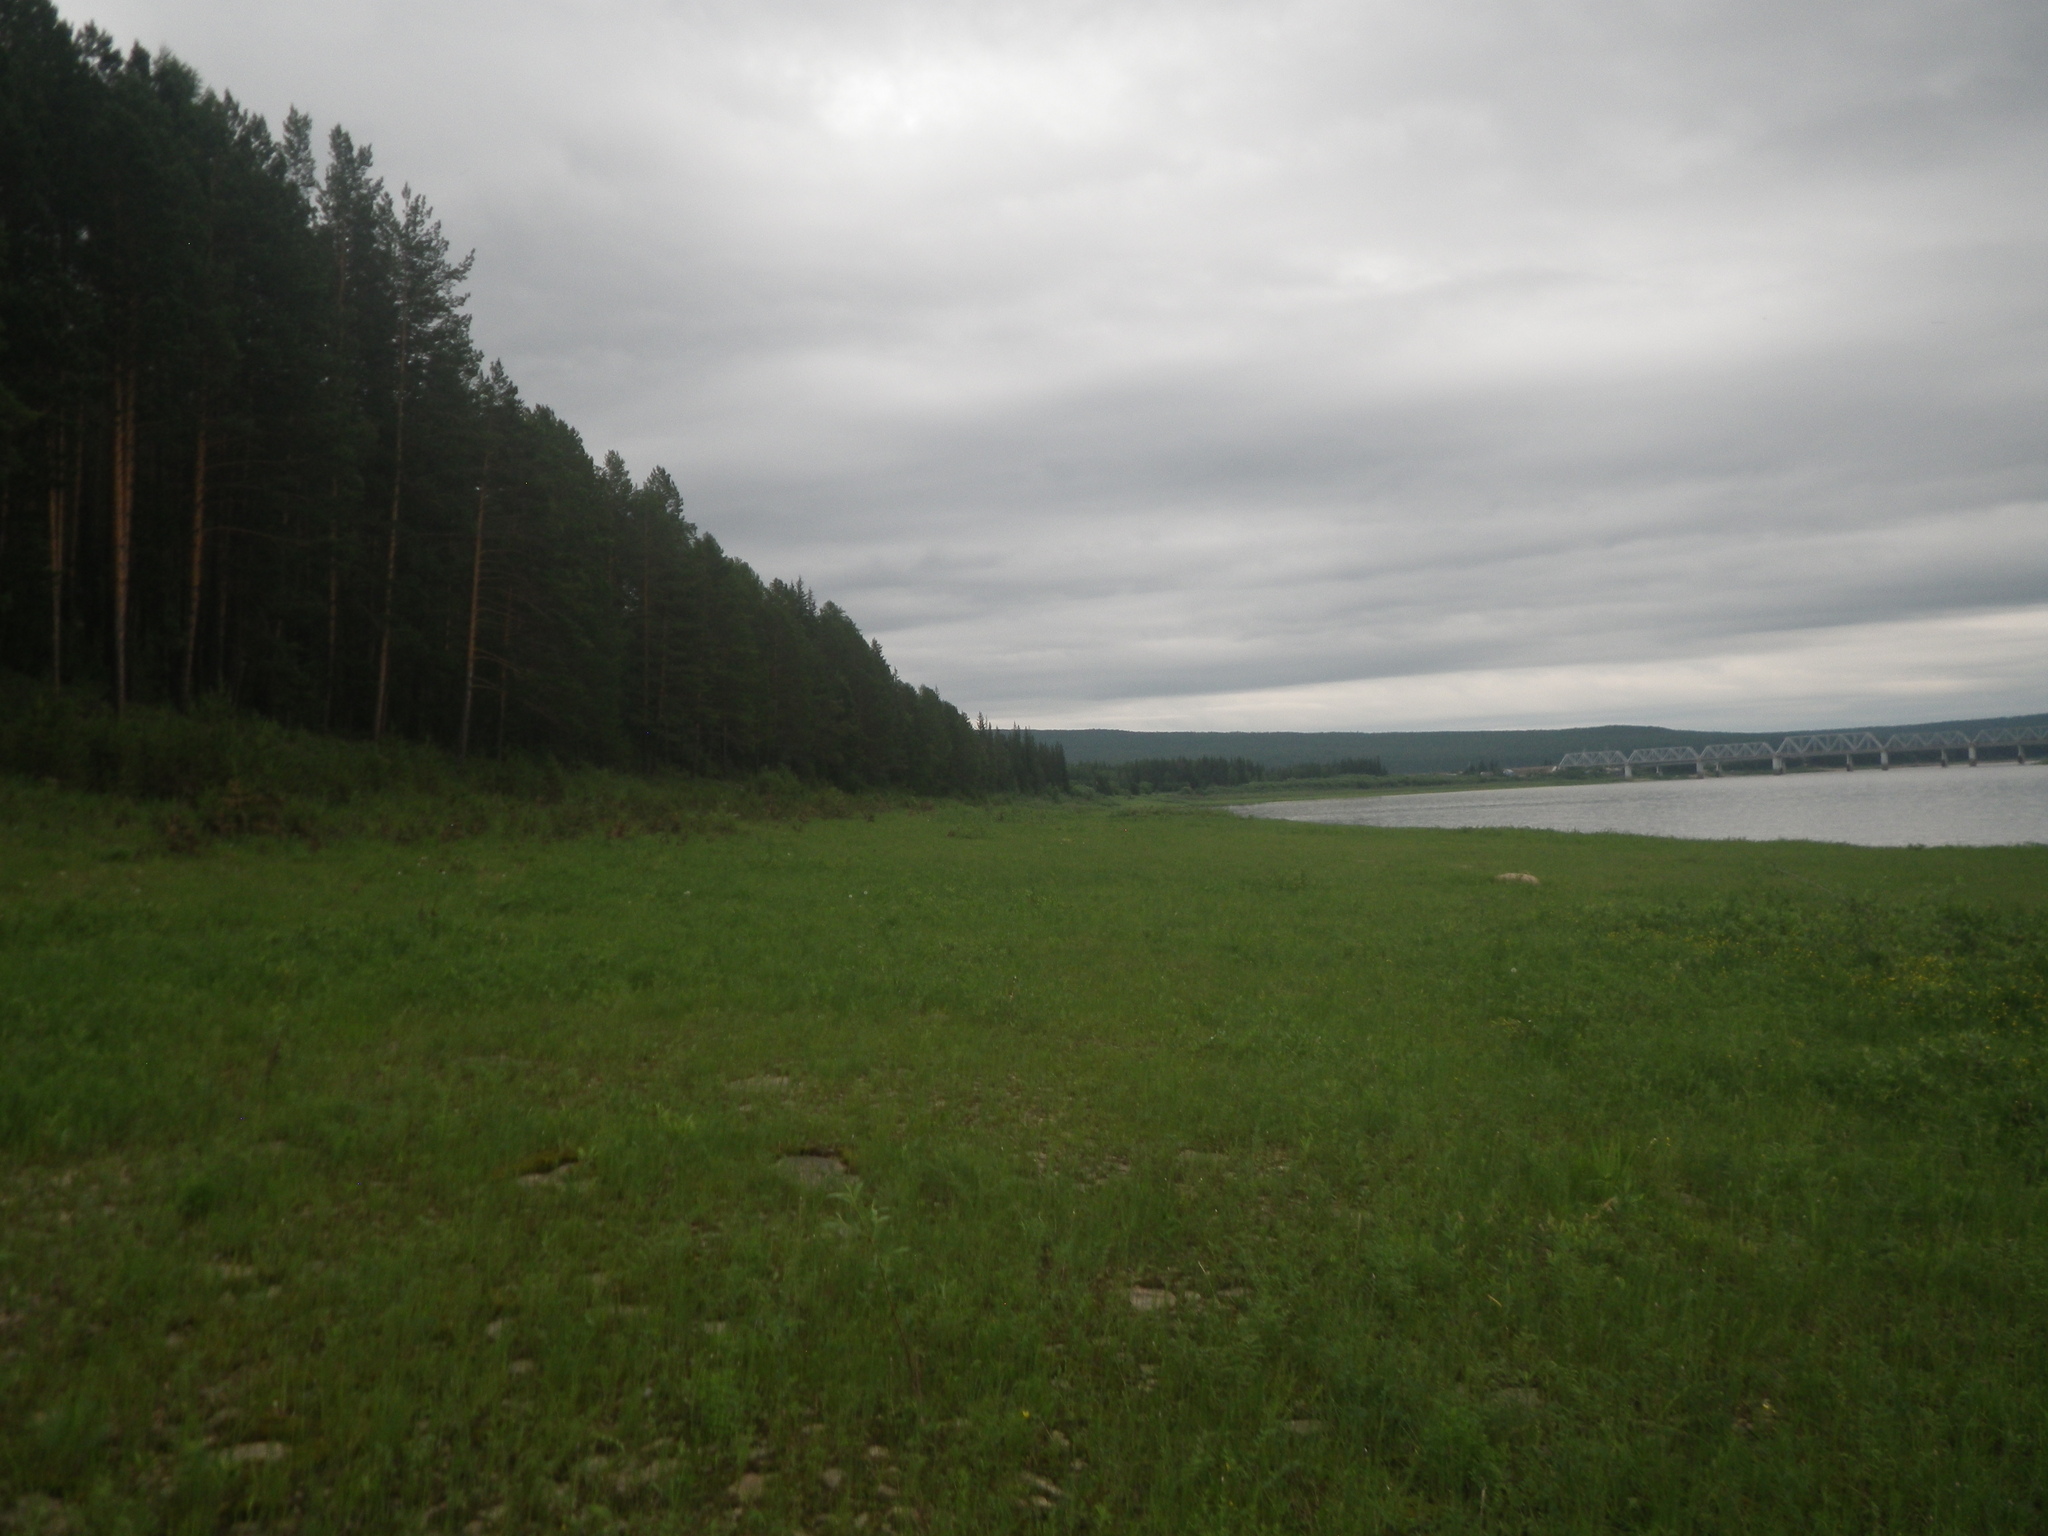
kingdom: Plantae
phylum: Tracheophyta
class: Pinopsida
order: Pinales
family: Pinaceae
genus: Pinus
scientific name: Pinus sylvestris
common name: Scots pine
